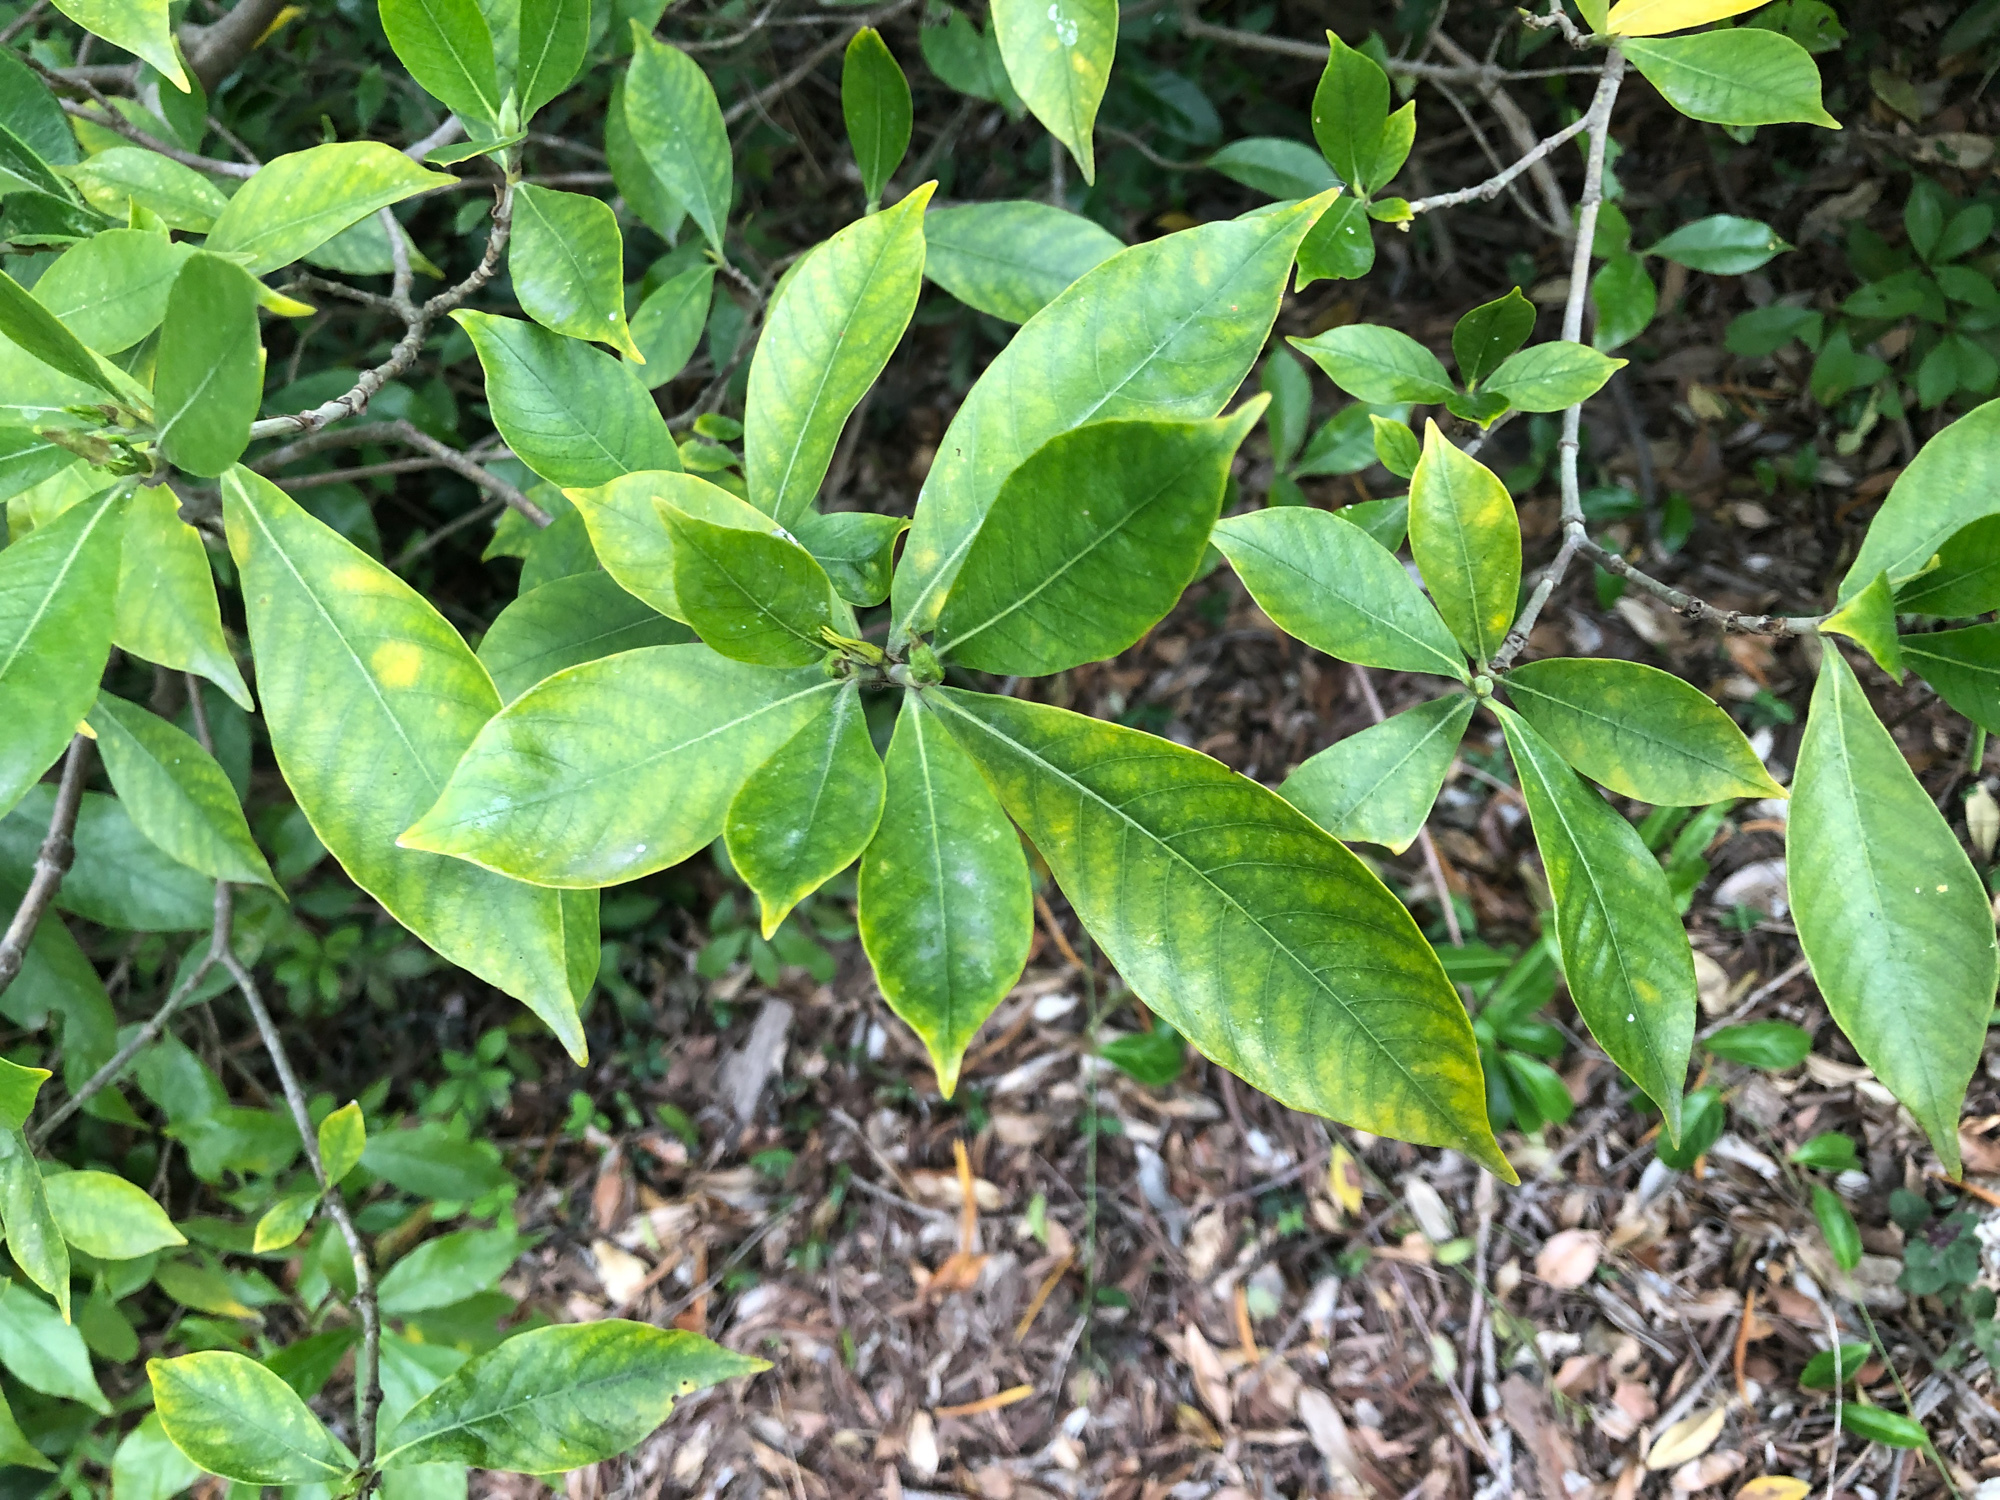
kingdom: Plantae
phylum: Tracheophyta
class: Magnoliopsida
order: Gentianales
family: Rubiaceae
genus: Gardenia
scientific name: Gardenia jasminoides
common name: Cape-jasmine
